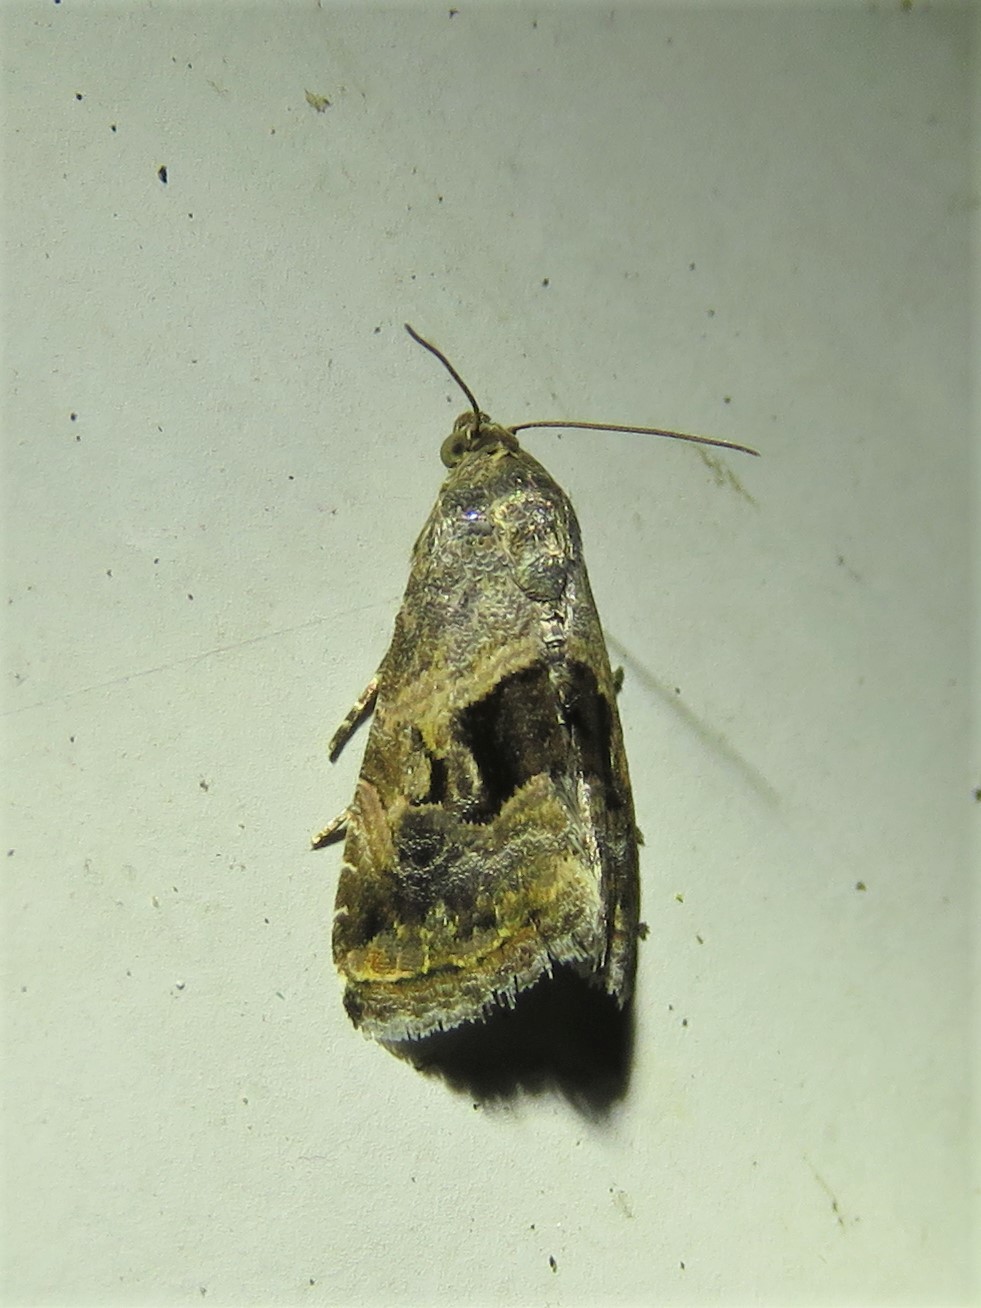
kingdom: Animalia
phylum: Arthropoda
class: Insecta
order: Lepidoptera
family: Noctuidae
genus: Tripudia
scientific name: Tripudia quadrifera
